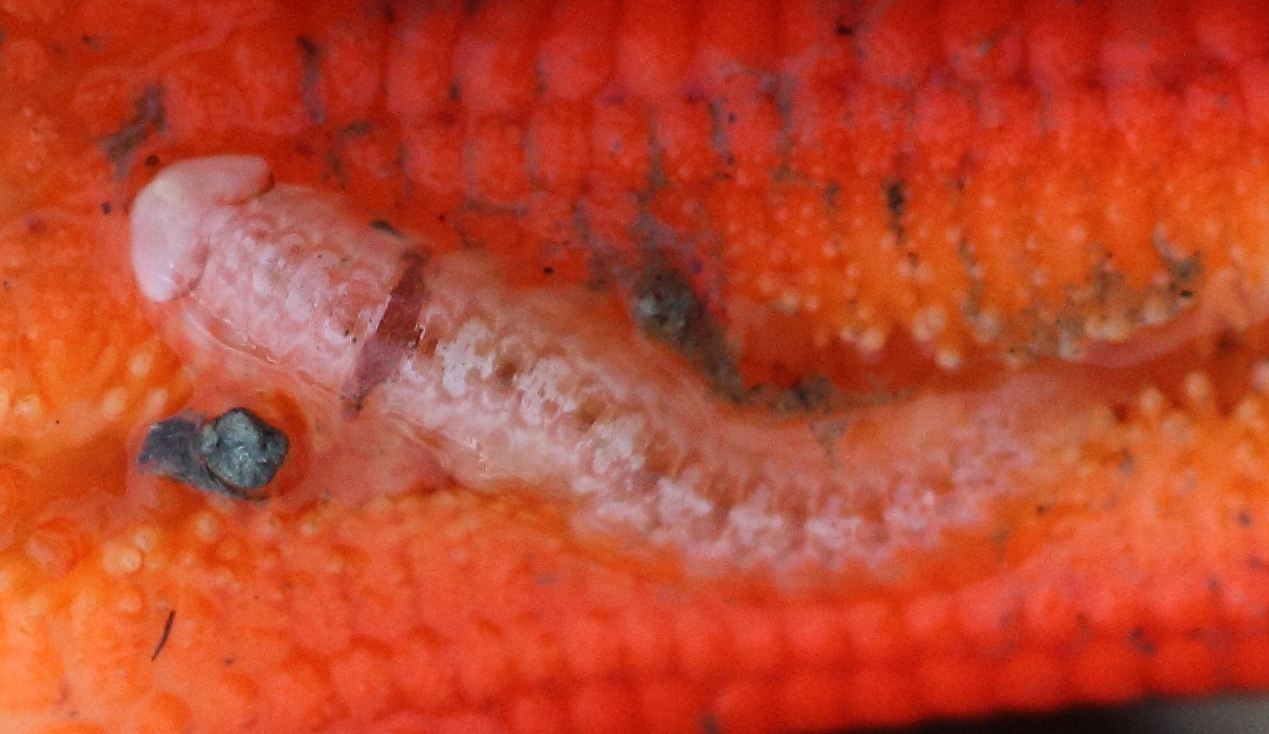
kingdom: Animalia
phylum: Annelida
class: Polychaeta
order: Phyllodocida
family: Polynoidae
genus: Arctonoe
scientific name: Arctonoe vittata
